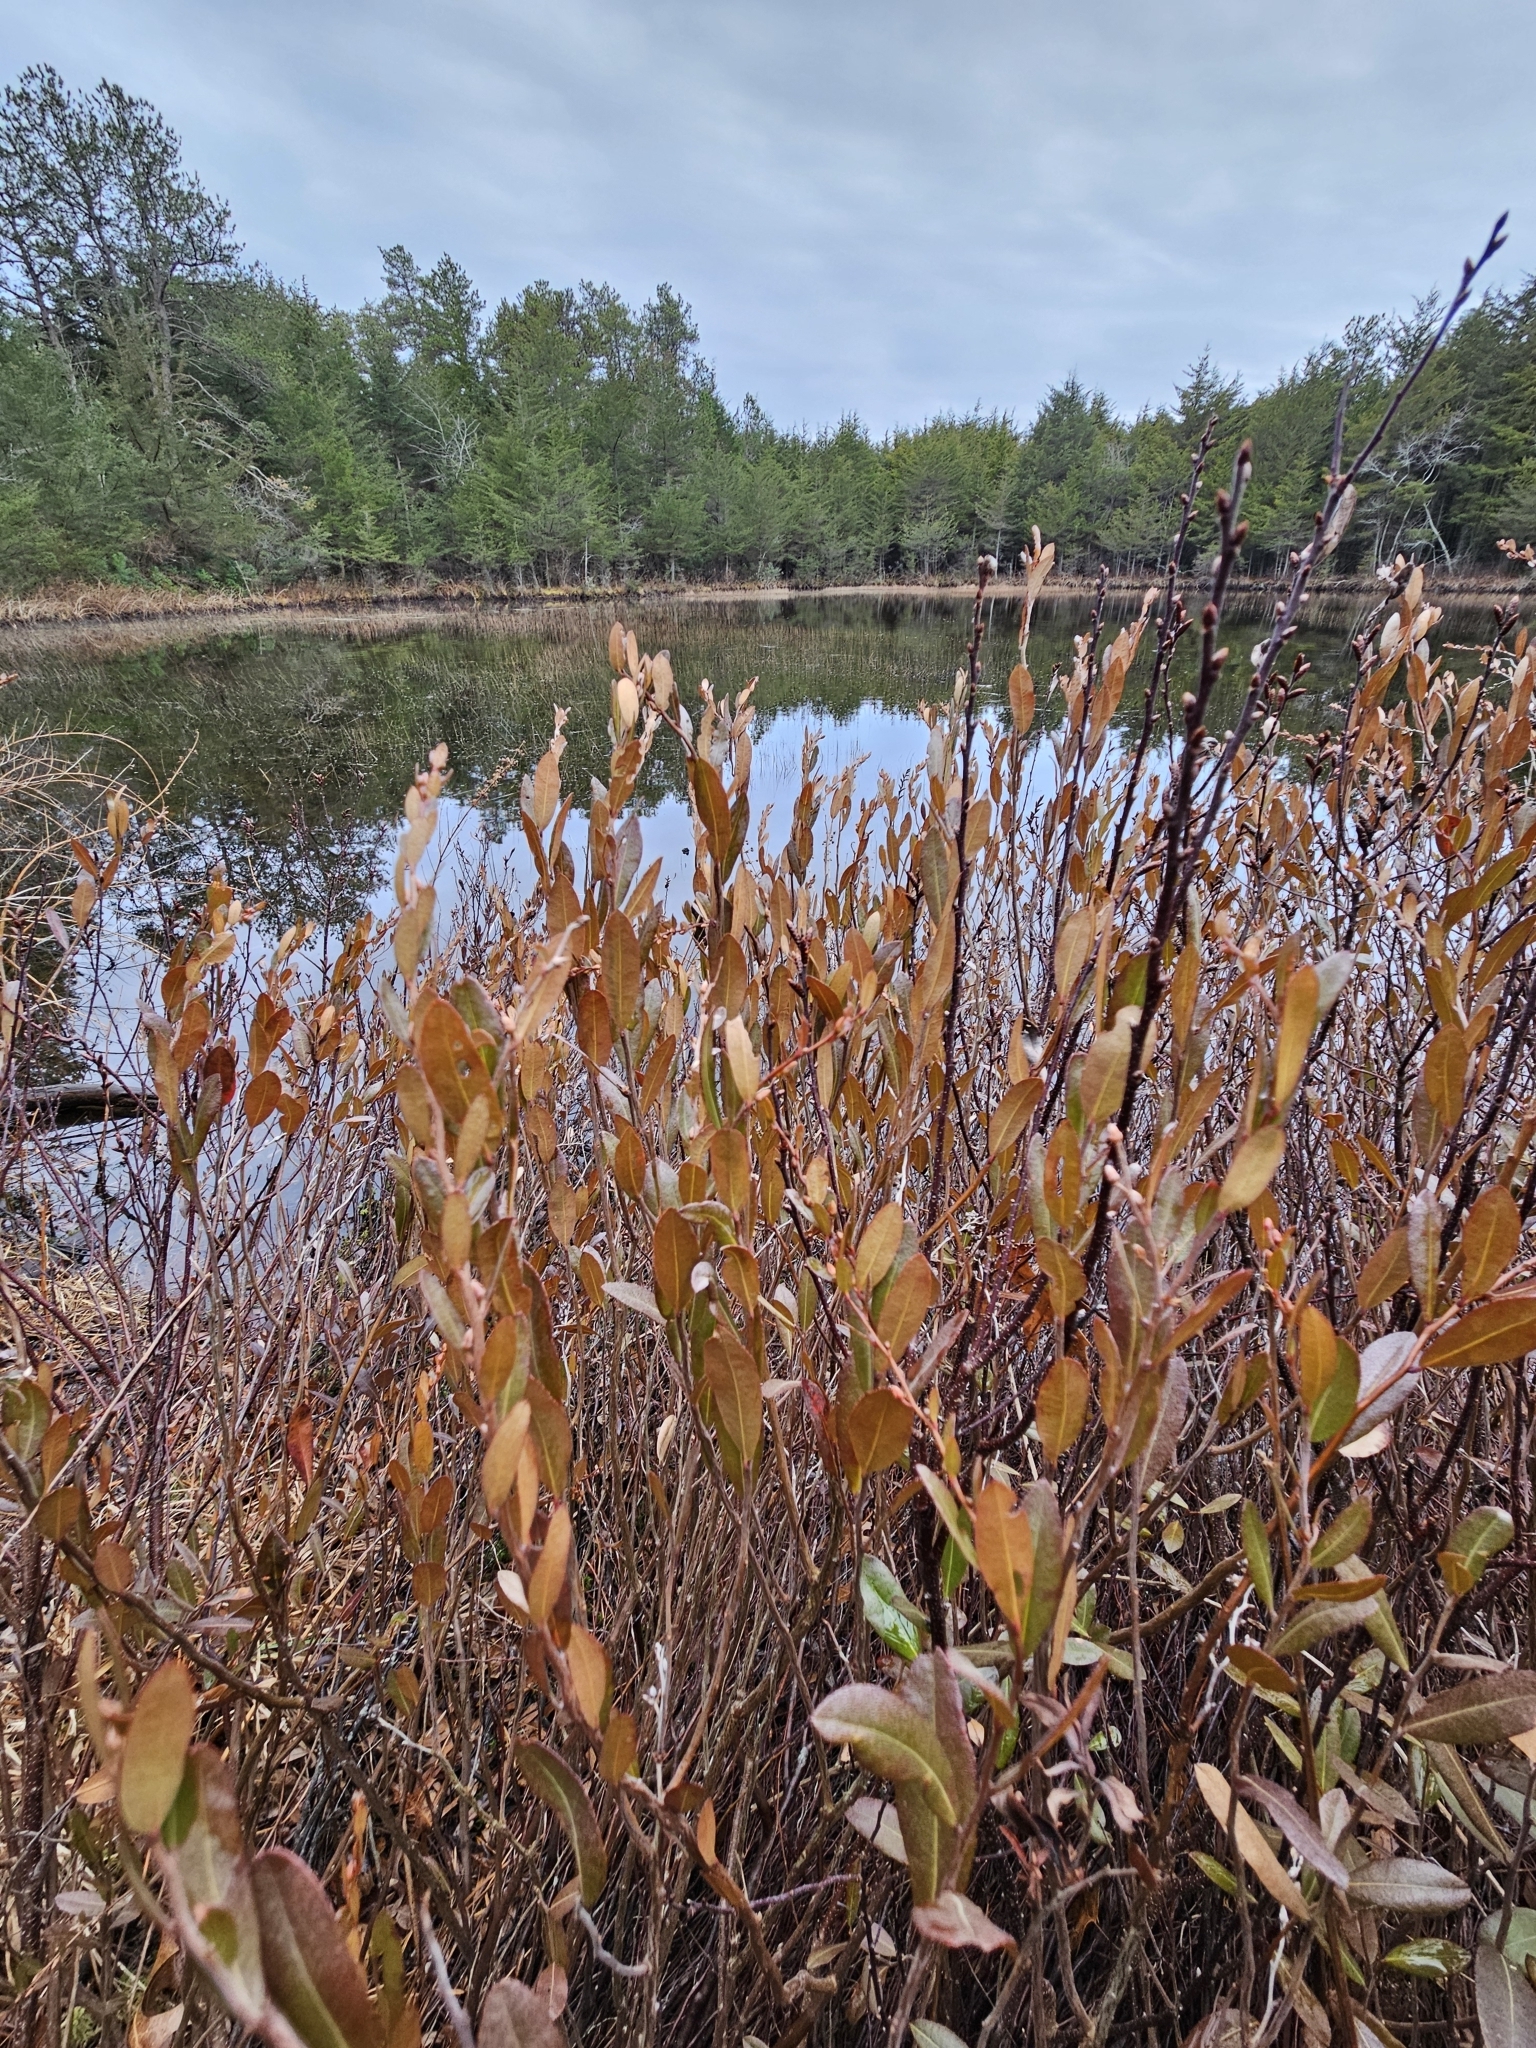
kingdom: Plantae
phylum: Tracheophyta
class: Magnoliopsida
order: Ericales
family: Ericaceae
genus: Chamaedaphne
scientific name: Chamaedaphne calyculata
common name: Leatherleaf
